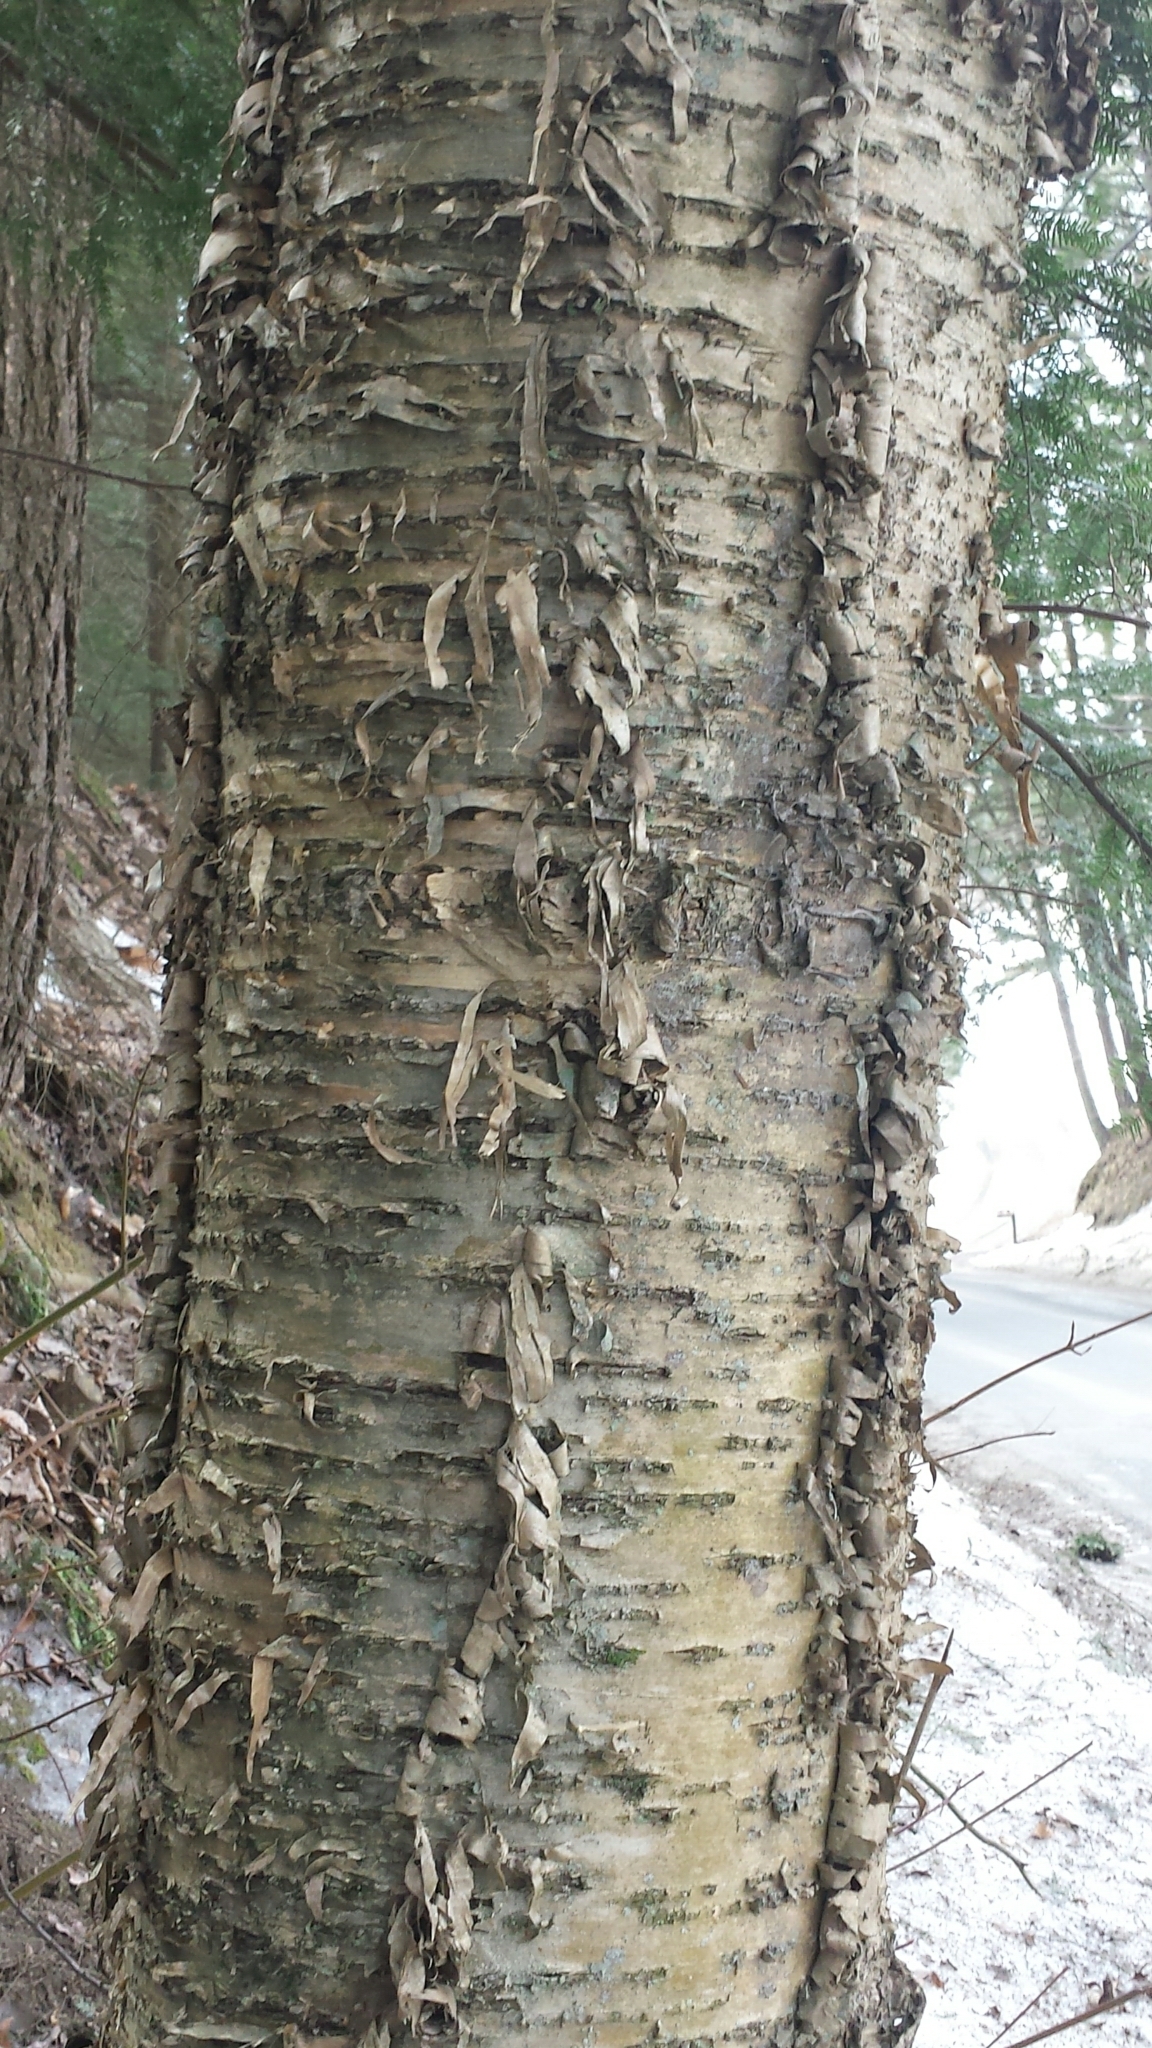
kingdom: Plantae
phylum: Tracheophyta
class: Magnoliopsida
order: Fagales
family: Betulaceae
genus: Betula
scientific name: Betula alleghaniensis
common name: Yellow birch
